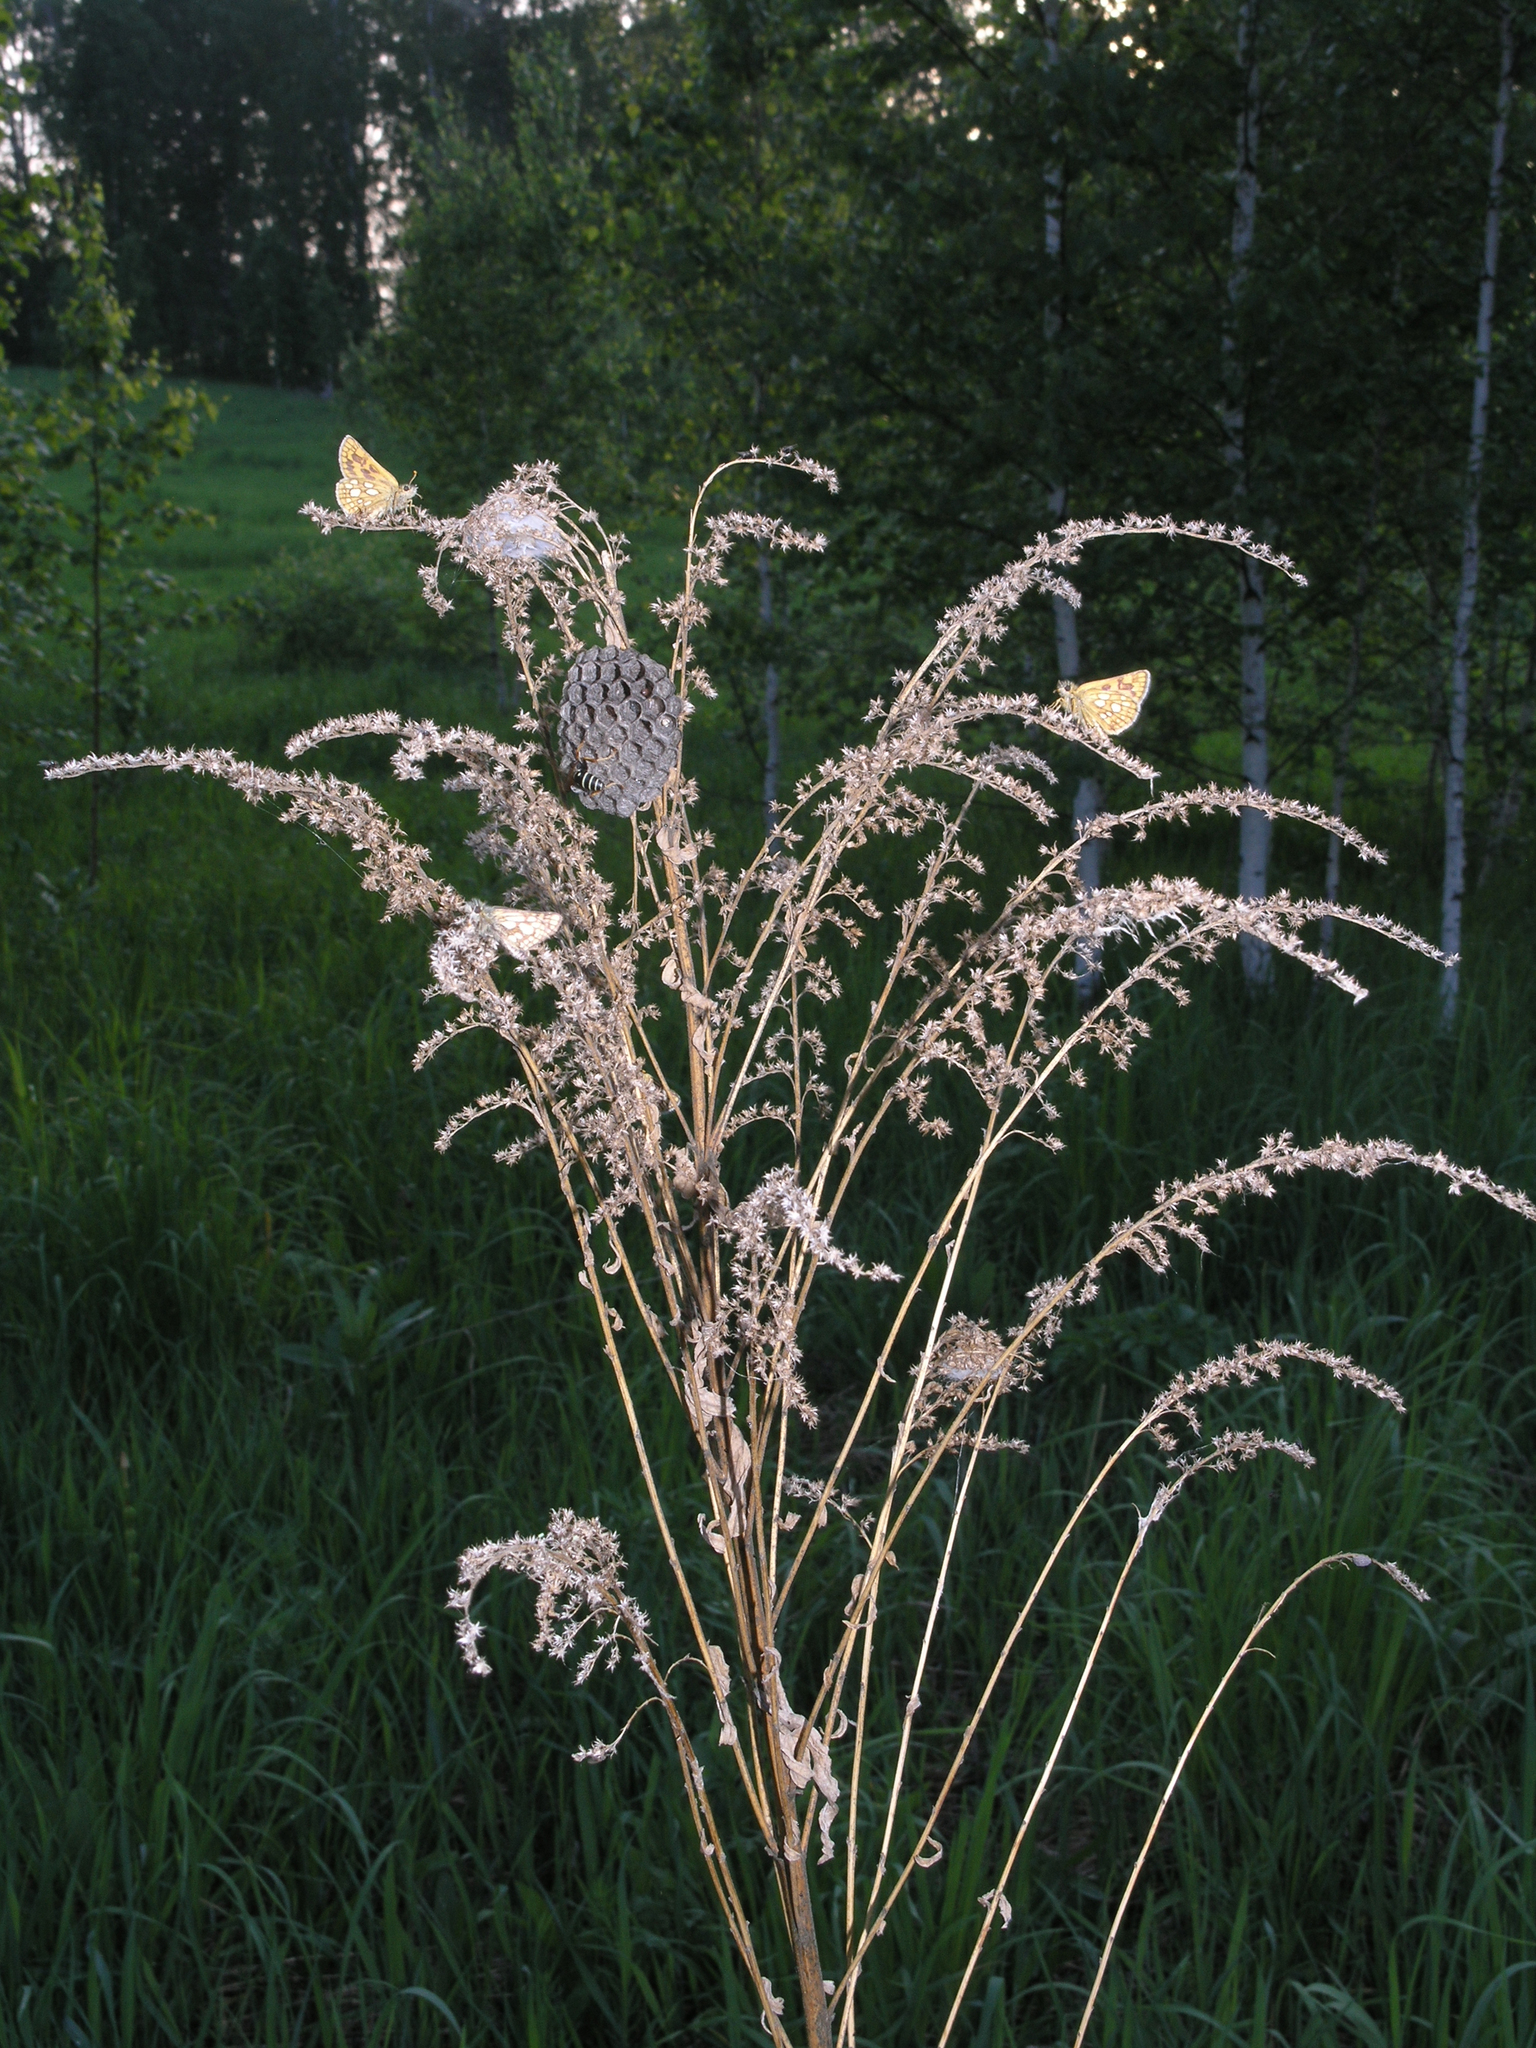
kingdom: Animalia
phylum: Arthropoda
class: Insecta
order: Lepidoptera
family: Hesperiidae
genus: Carterocephalus
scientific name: Carterocephalus palaemon
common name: Chequered skipper
